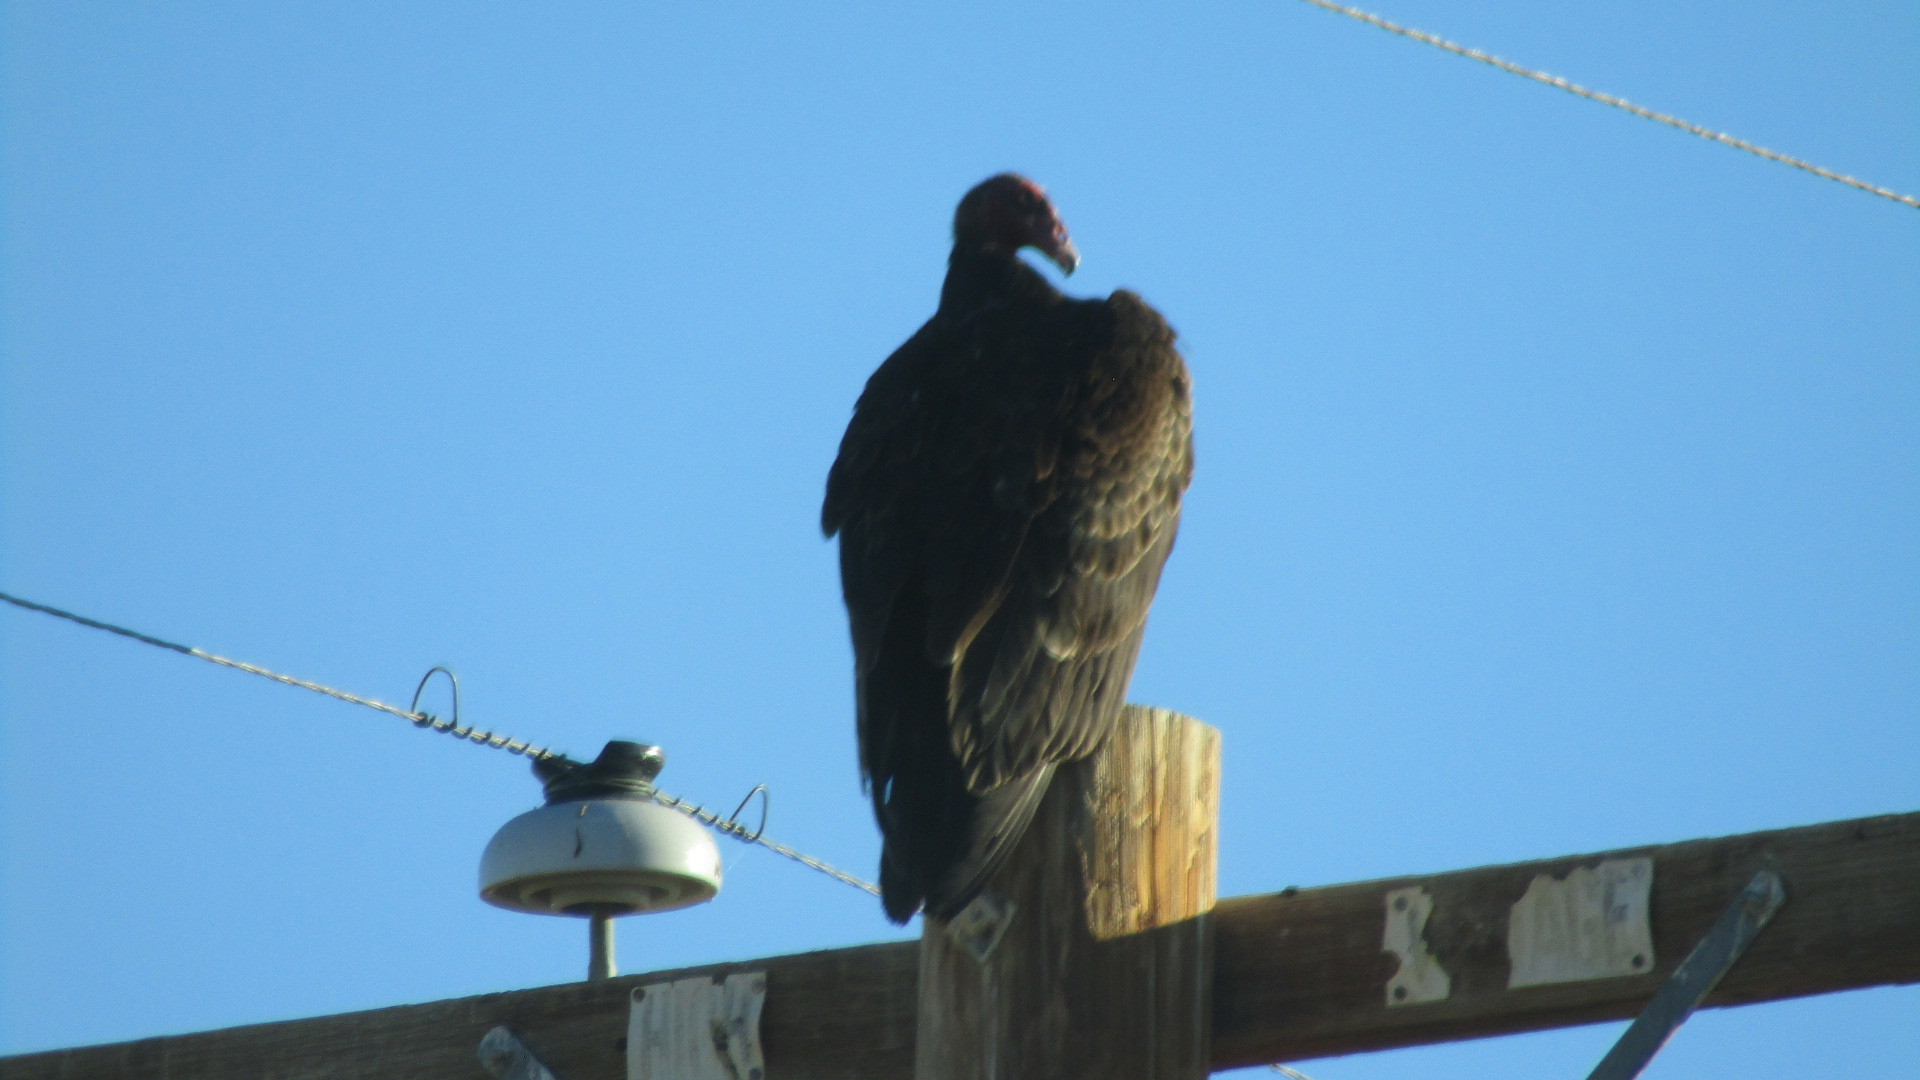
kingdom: Animalia
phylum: Chordata
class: Aves
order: Accipitriformes
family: Cathartidae
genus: Cathartes
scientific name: Cathartes aura
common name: Turkey vulture
